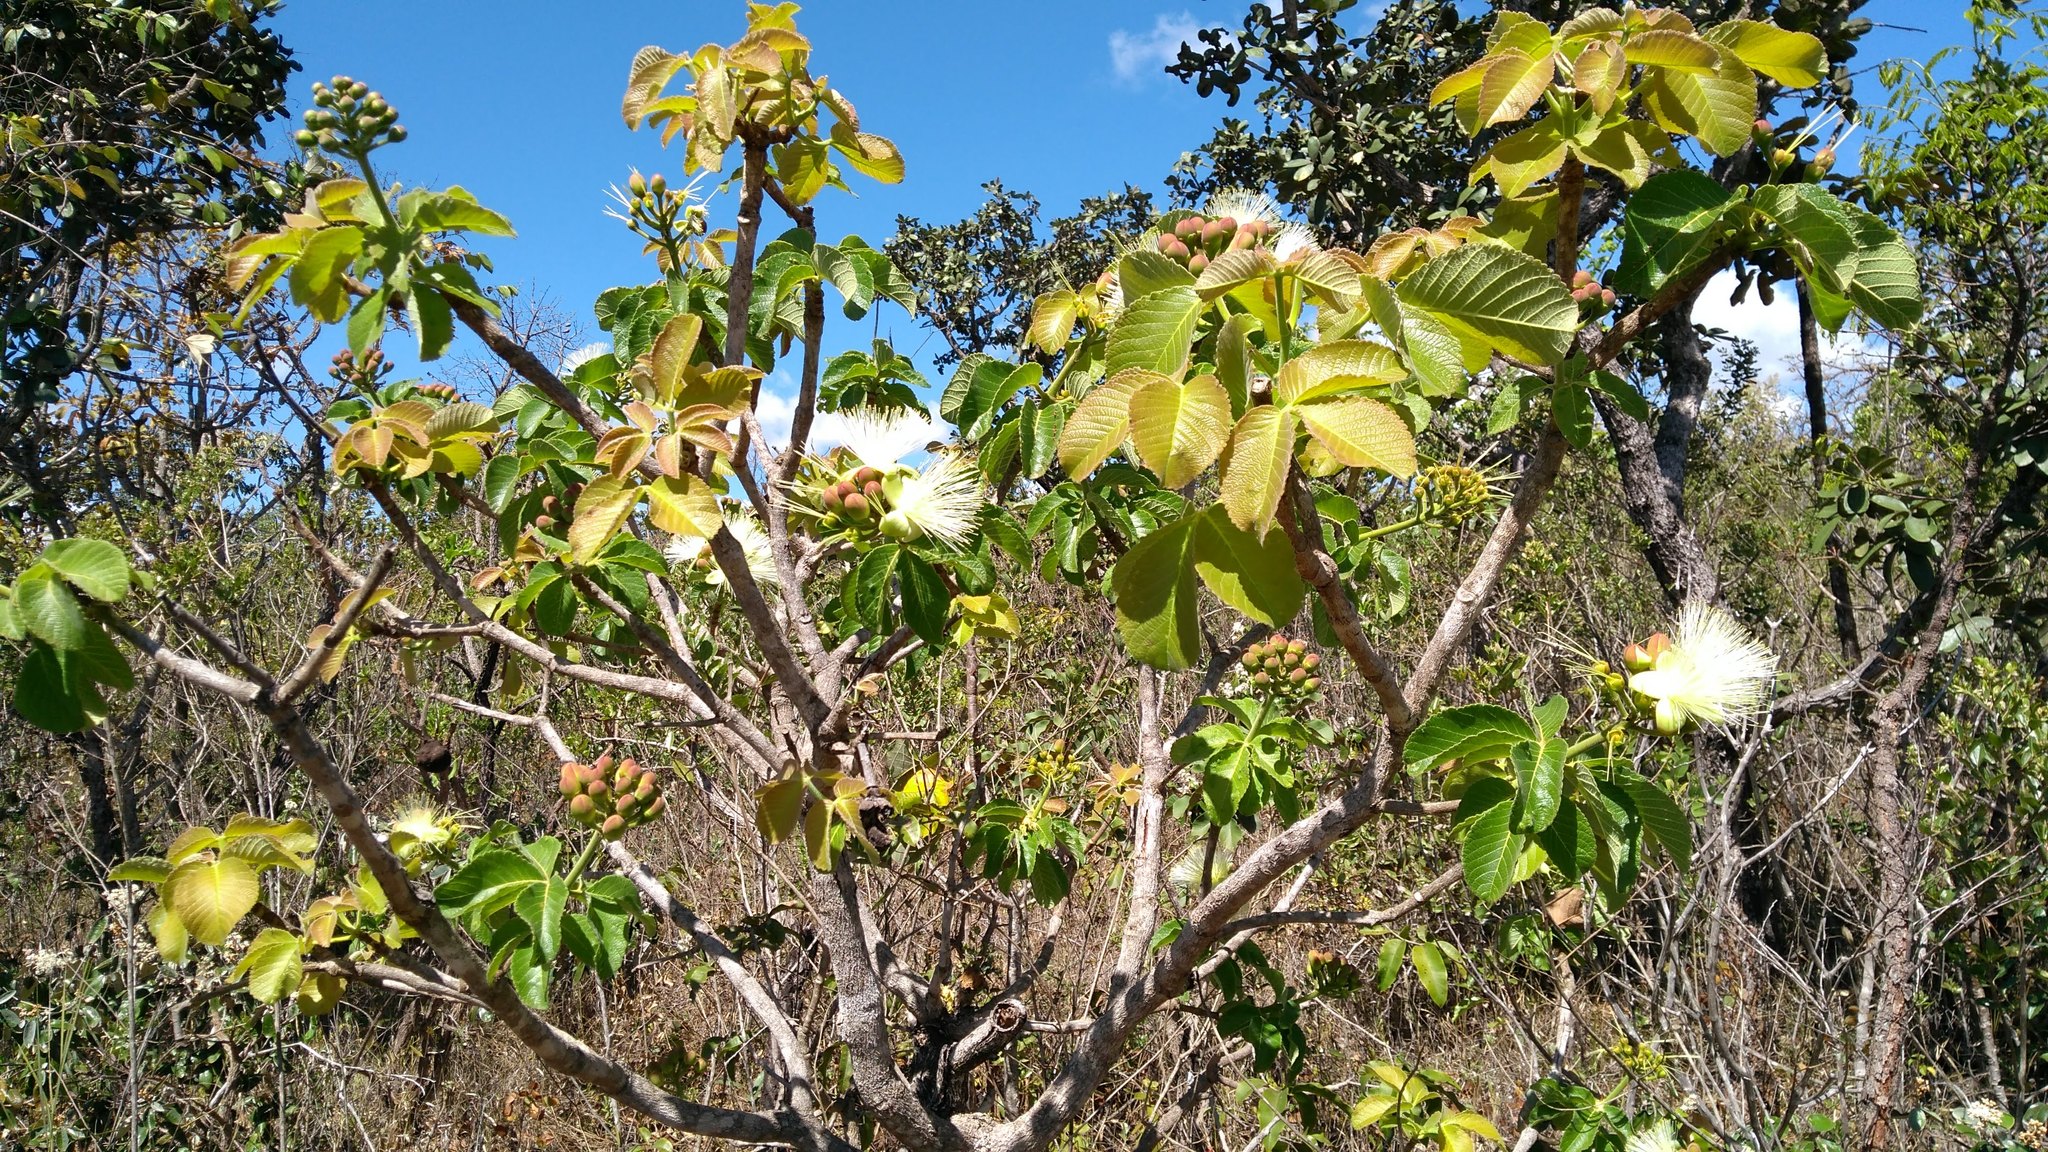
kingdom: Plantae
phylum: Tracheophyta
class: Magnoliopsida
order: Malpighiales
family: Caryocaraceae
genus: Caryocar
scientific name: Caryocar brasiliense
